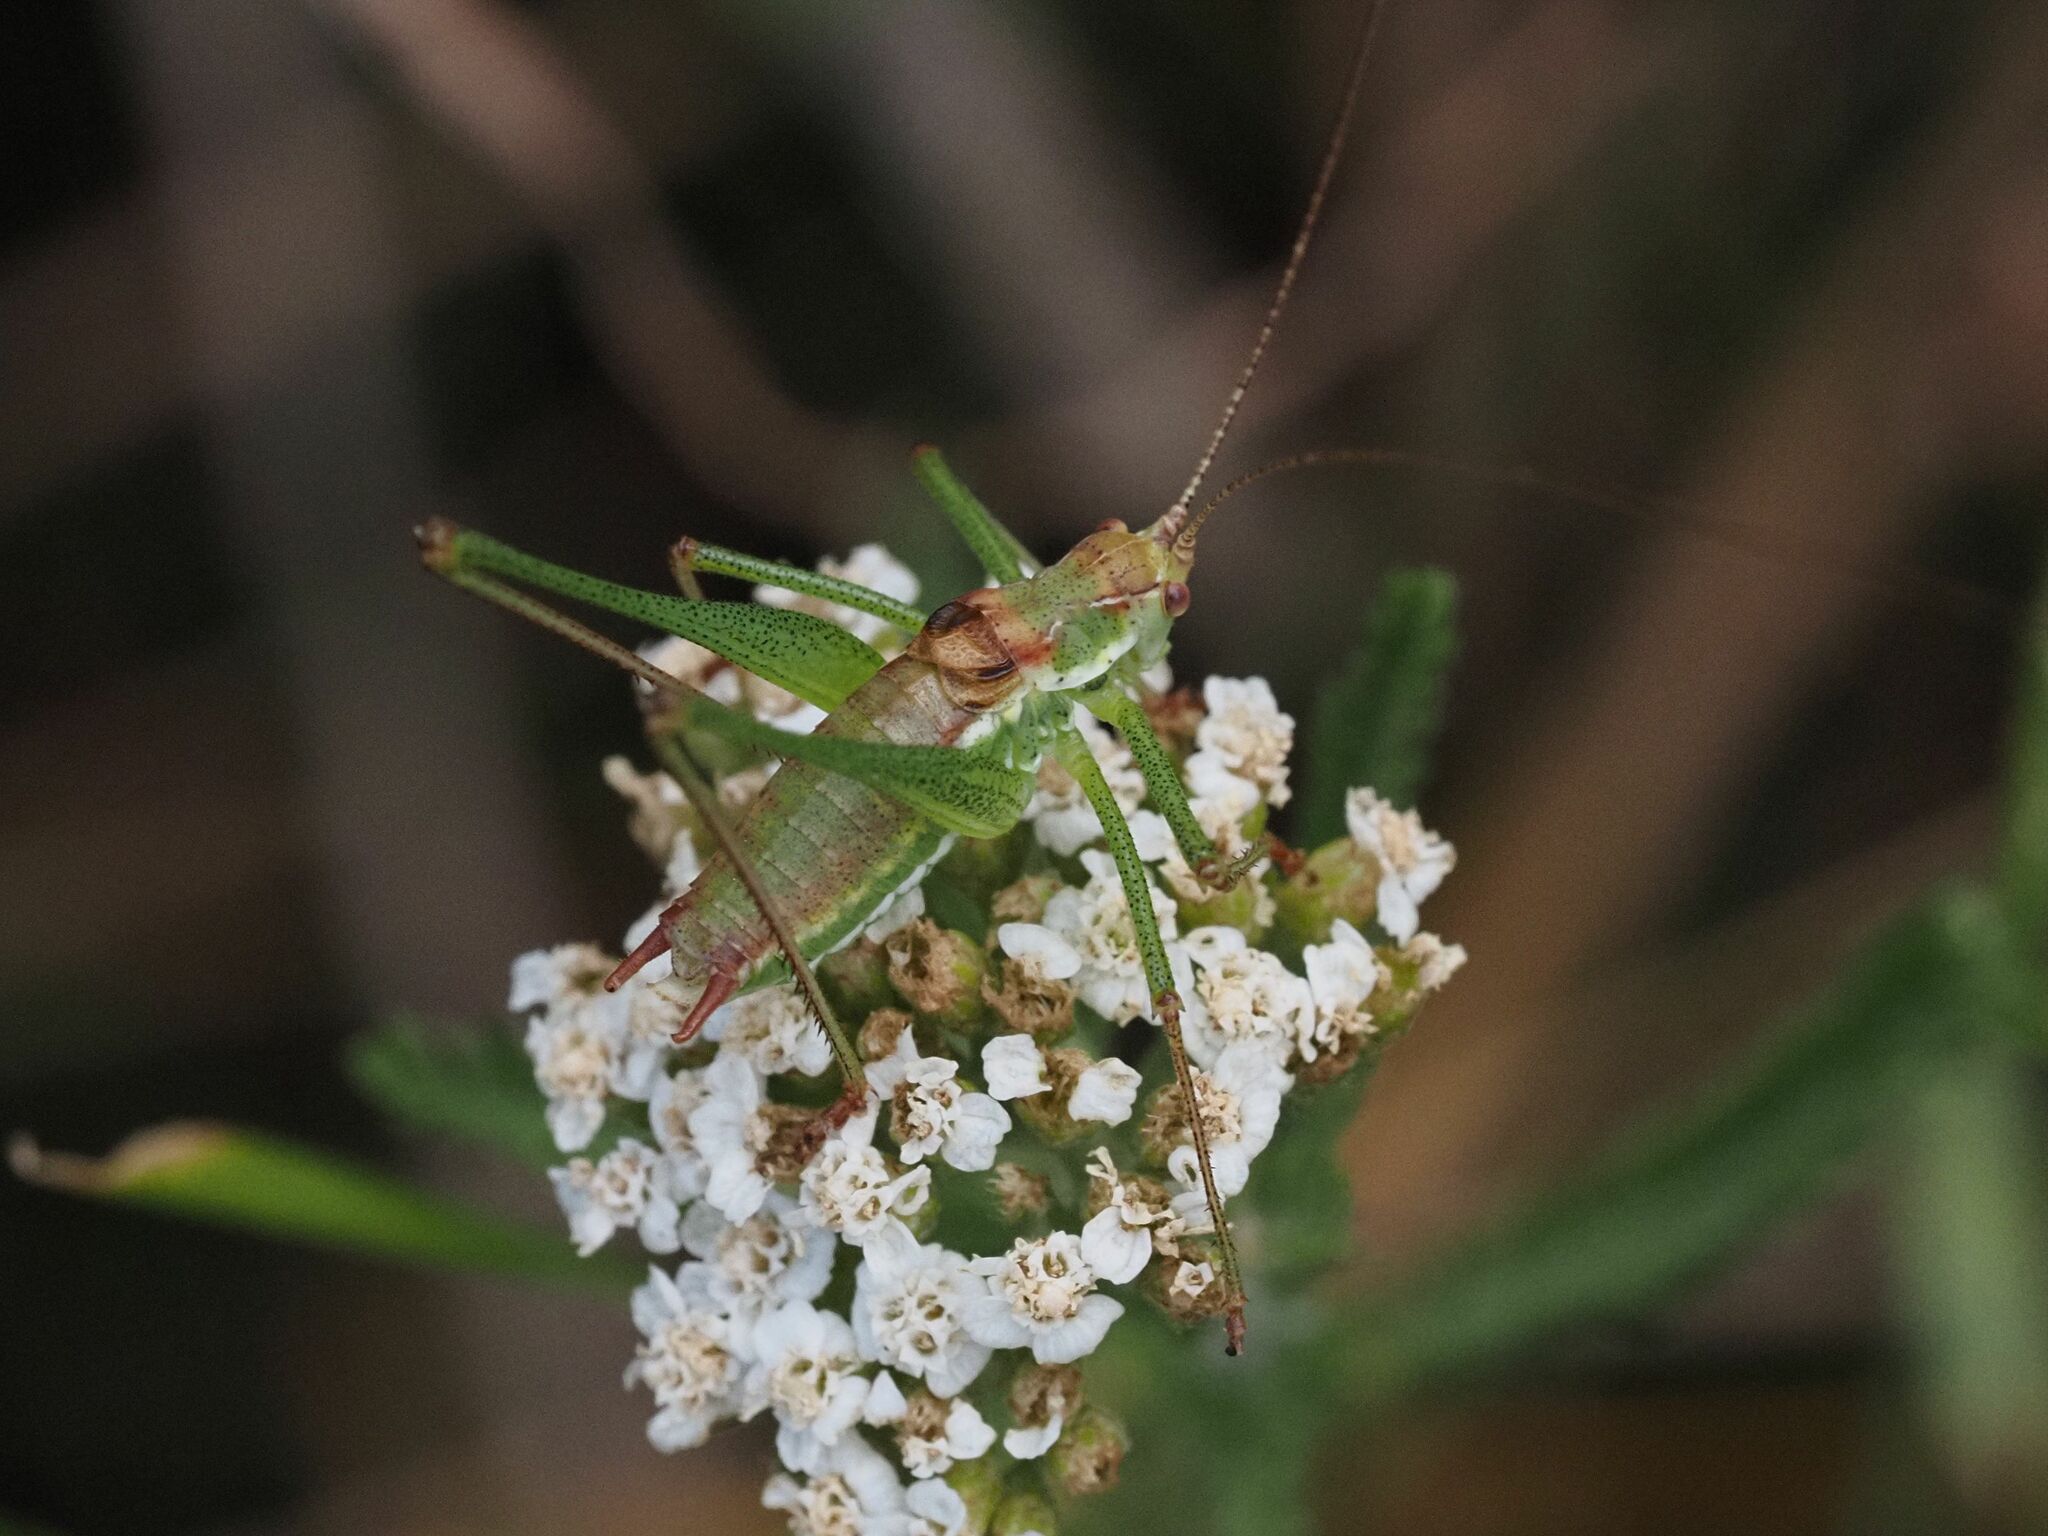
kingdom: Animalia
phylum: Arthropoda
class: Insecta
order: Orthoptera
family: Tettigoniidae
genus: Leptophyes
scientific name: Leptophyes albovittata
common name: Striped bush-cricket
